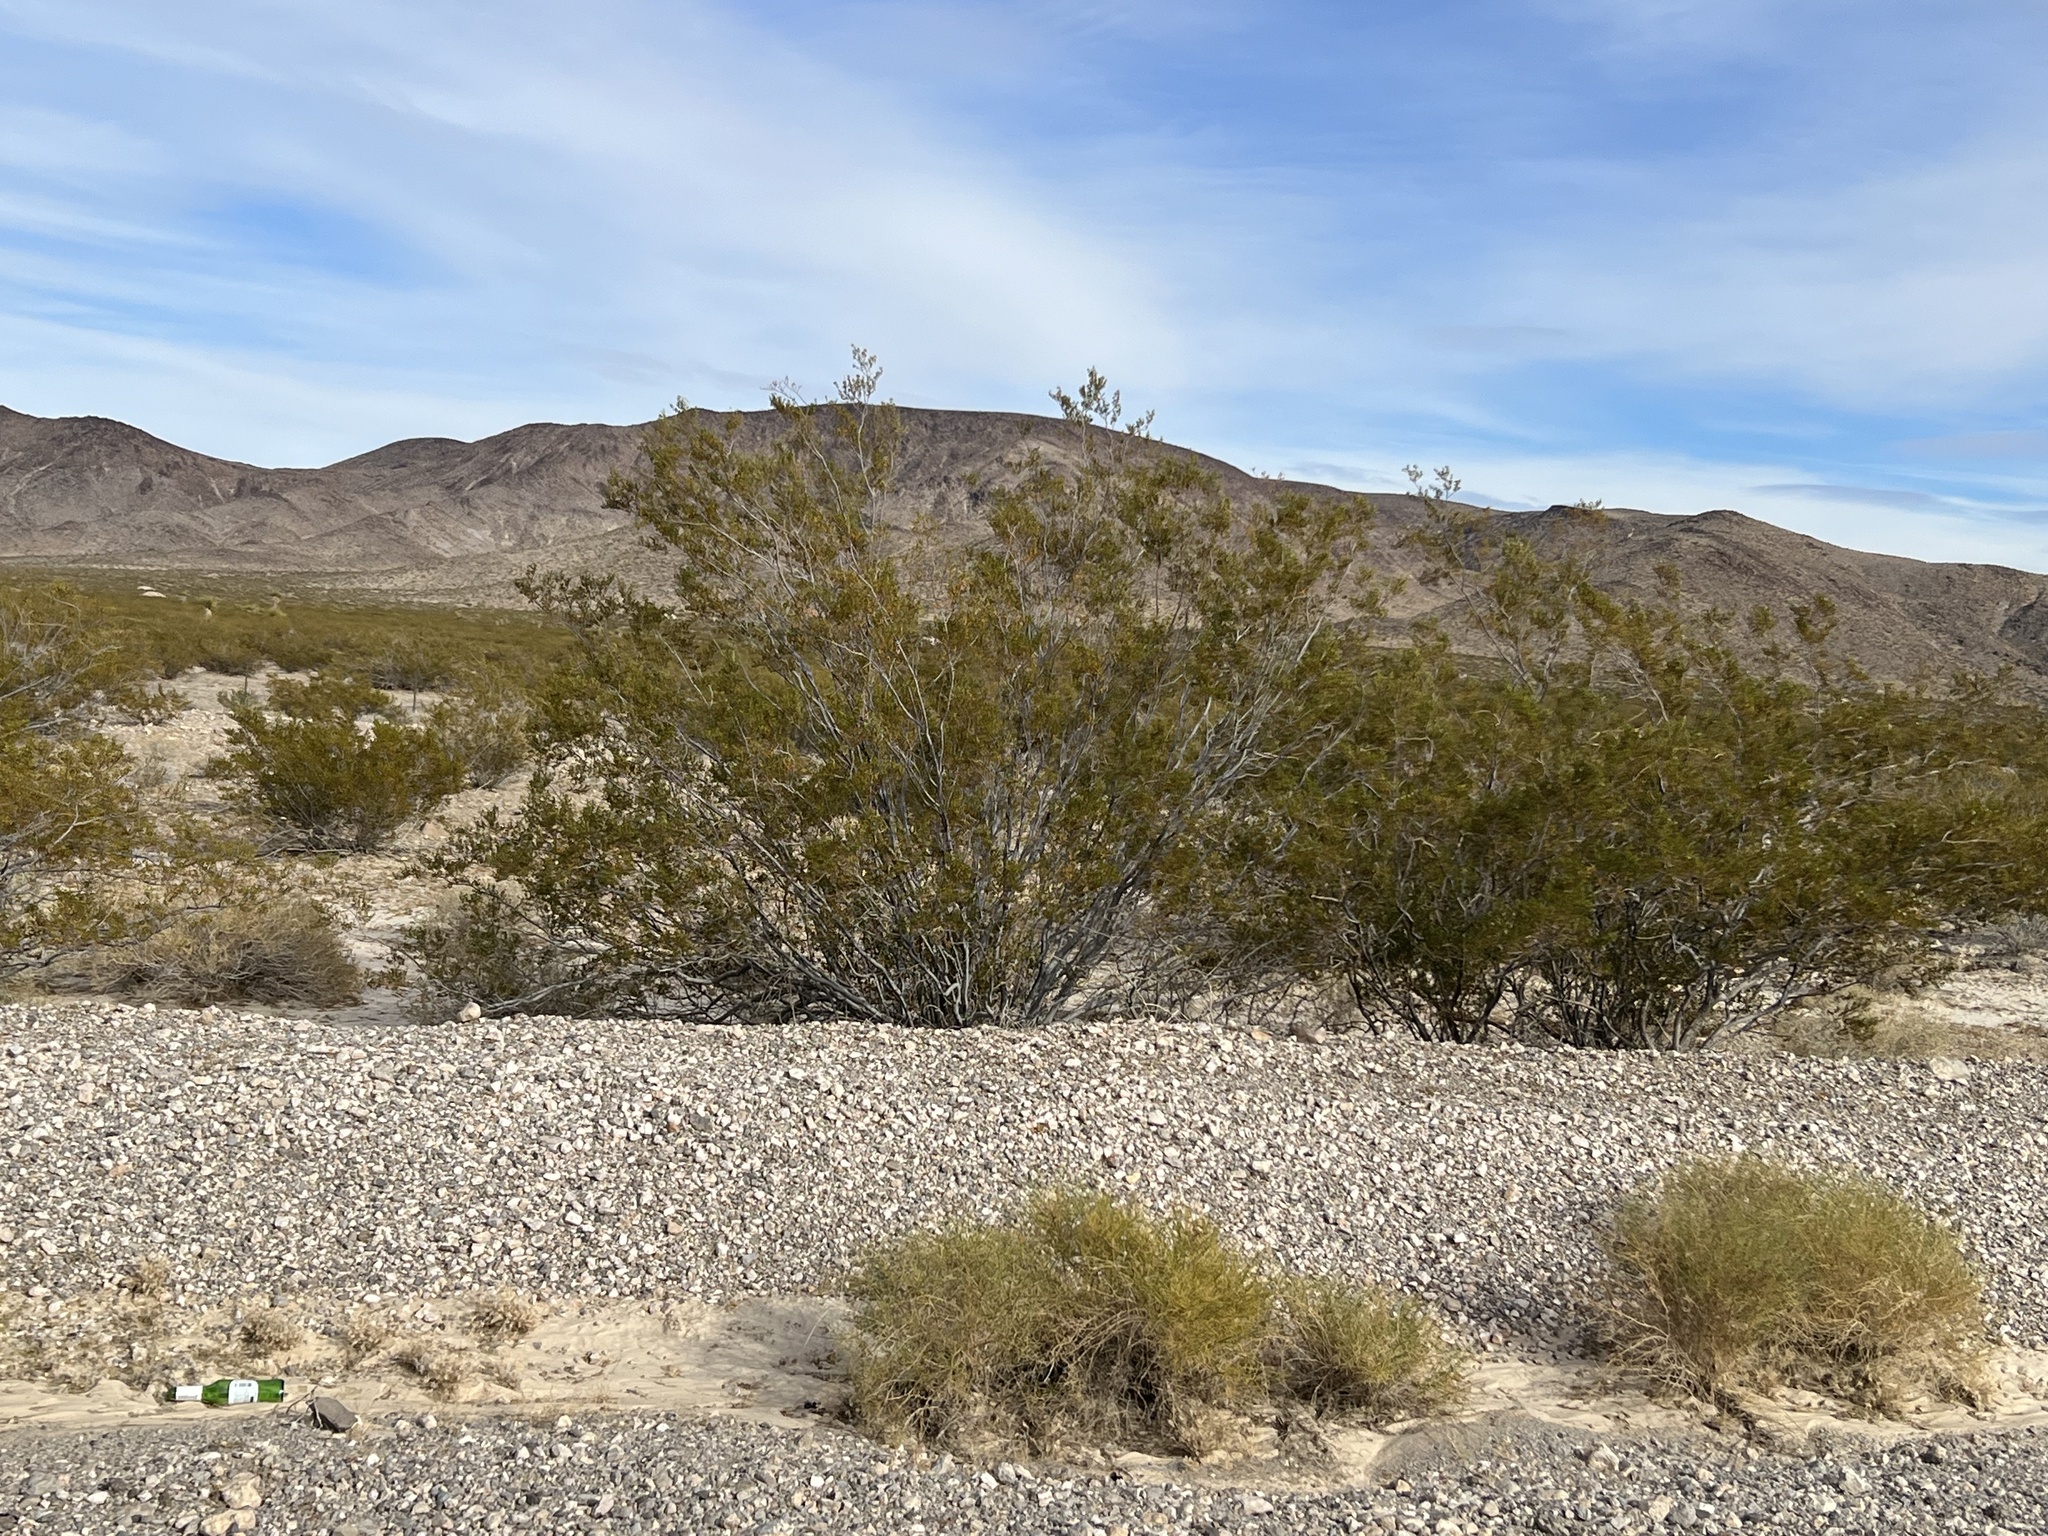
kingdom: Plantae
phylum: Tracheophyta
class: Magnoliopsida
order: Zygophyllales
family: Zygophyllaceae
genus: Larrea
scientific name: Larrea tridentata
